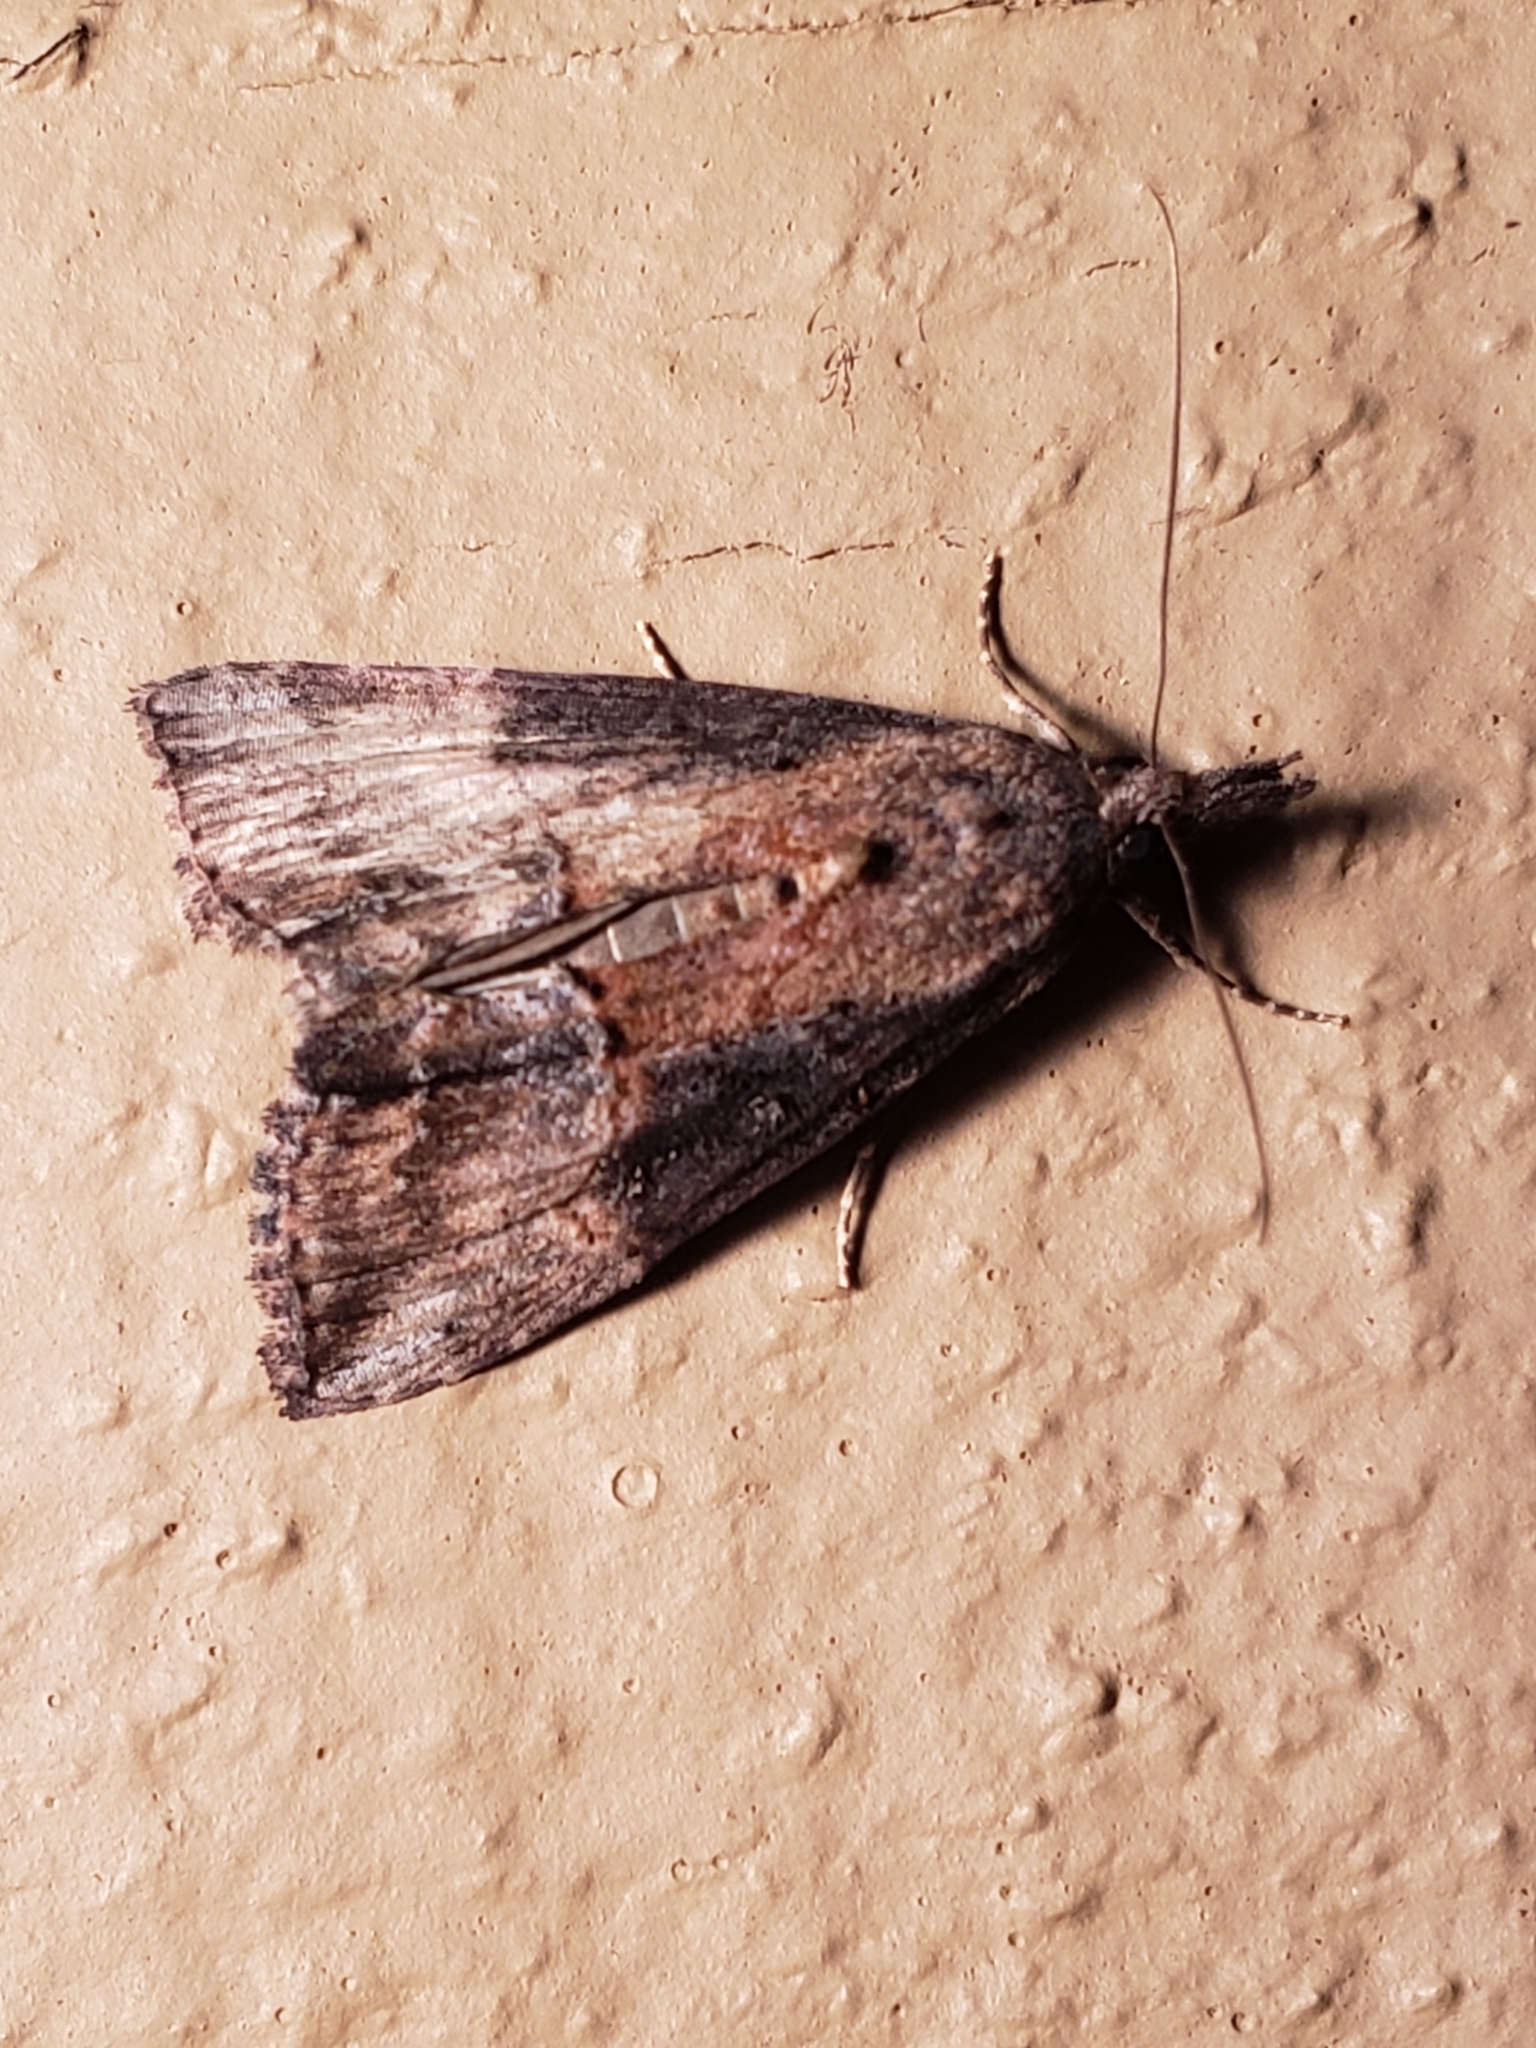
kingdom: Animalia
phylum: Arthropoda
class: Insecta
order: Lepidoptera
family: Erebidae
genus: Hypena
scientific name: Hypena scabra
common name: Green cloverworm
